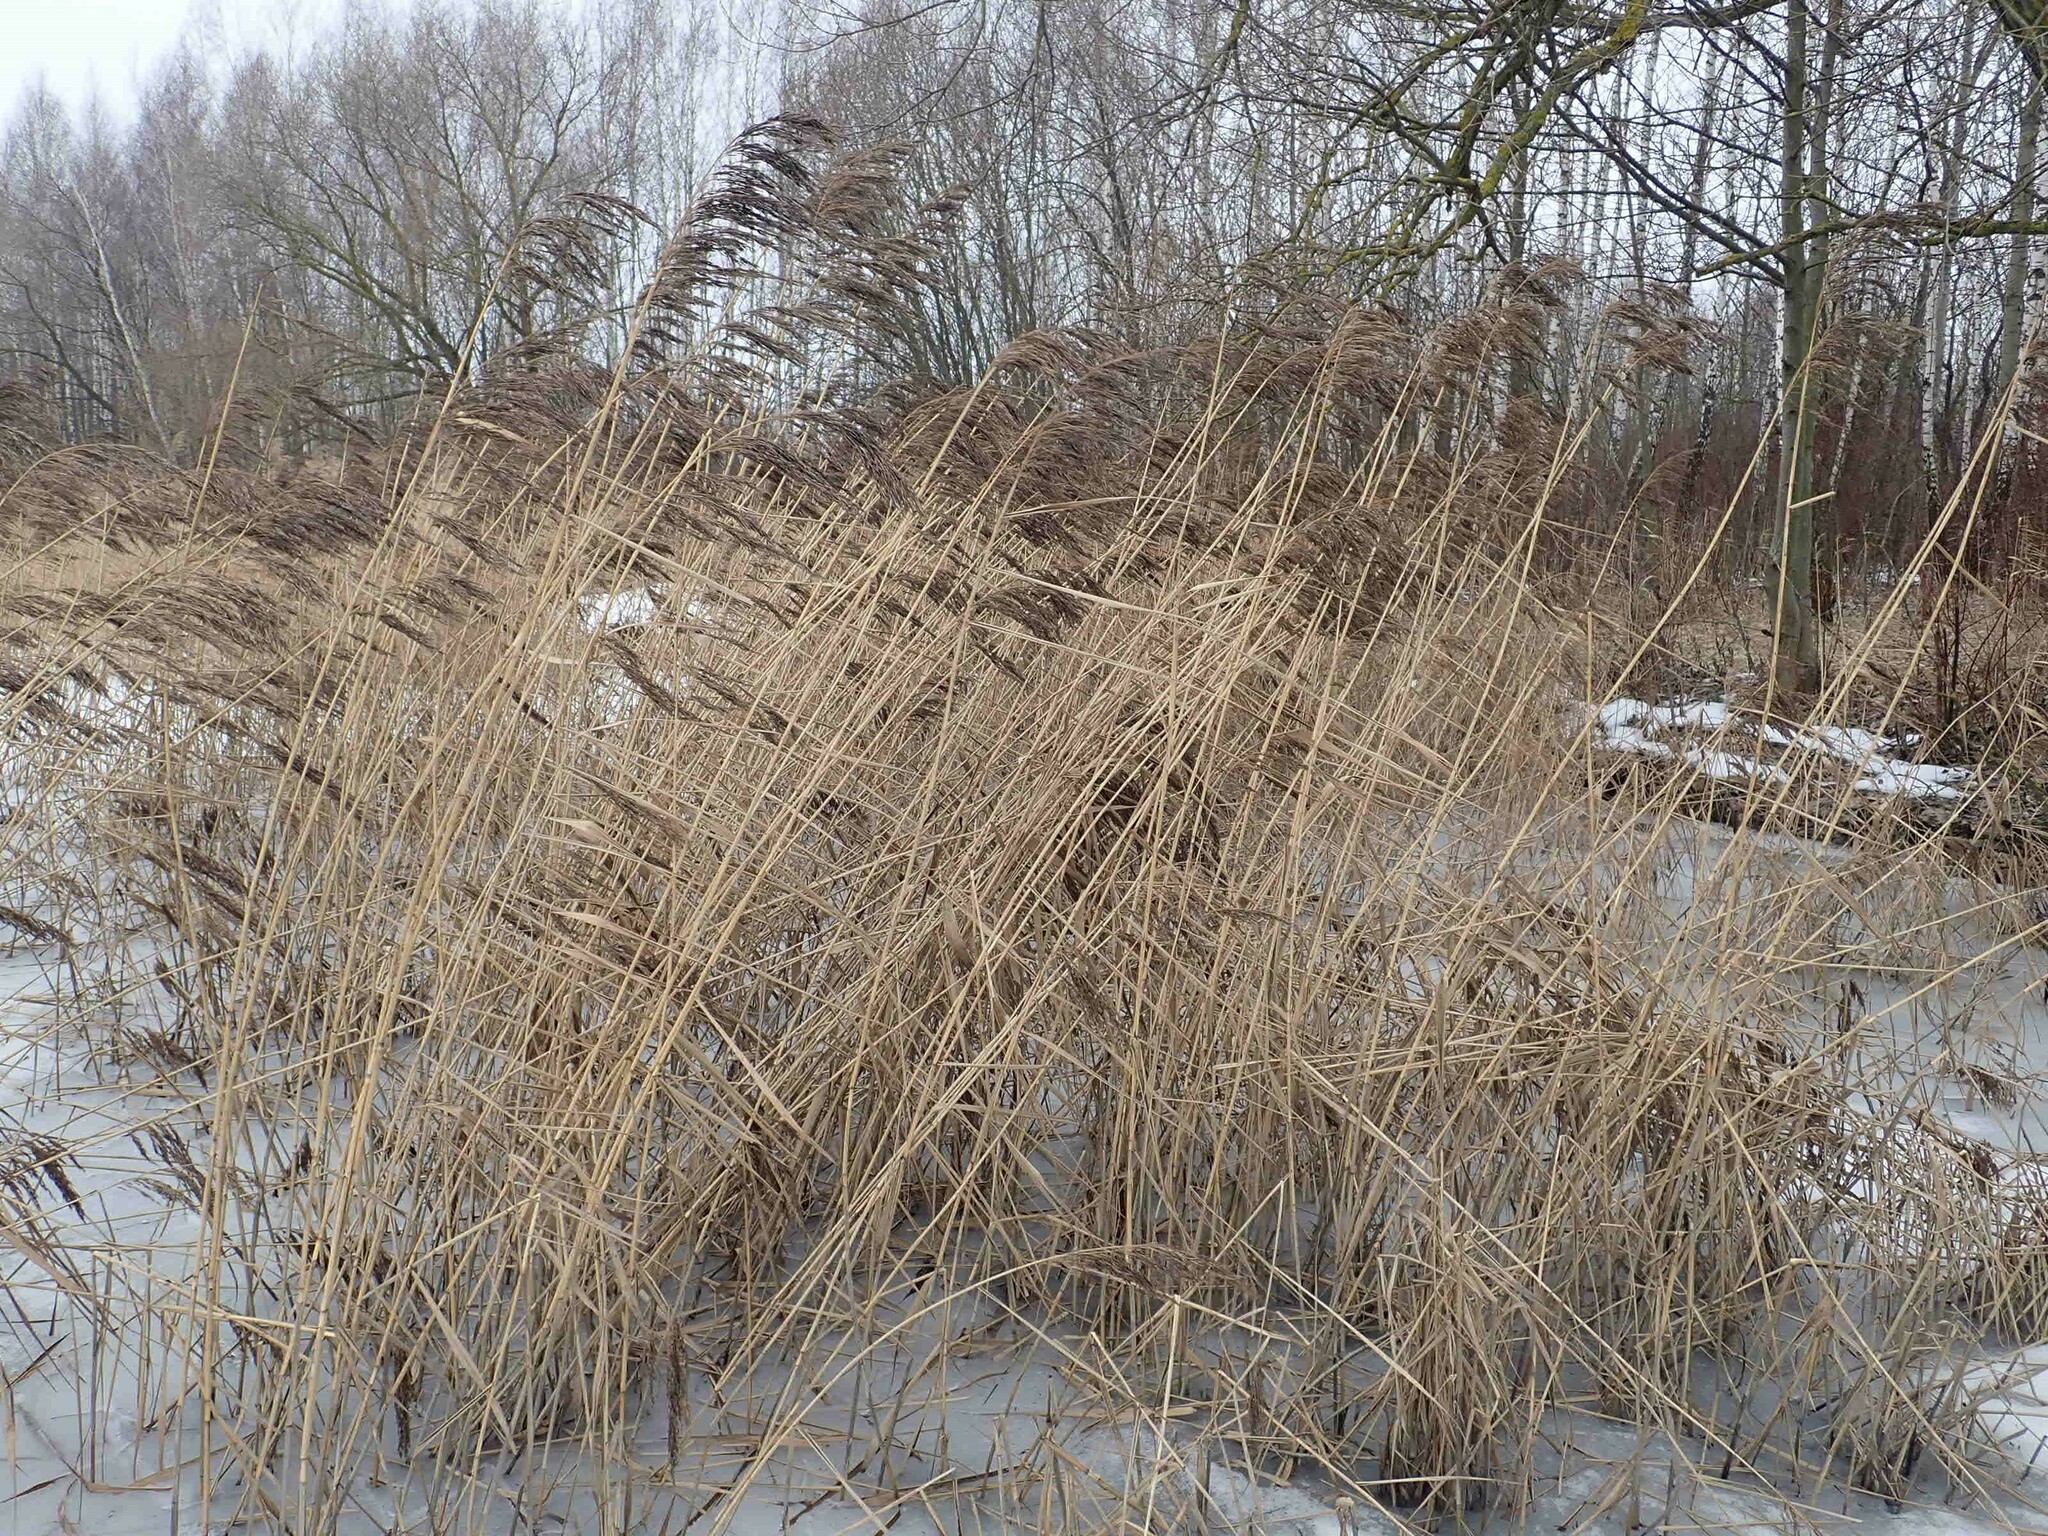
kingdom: Plantae
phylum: Tracheophyta
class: Liliopsida
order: Poales
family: Poaceae
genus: Phragmites
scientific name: Phragmites australis
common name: Common reed
